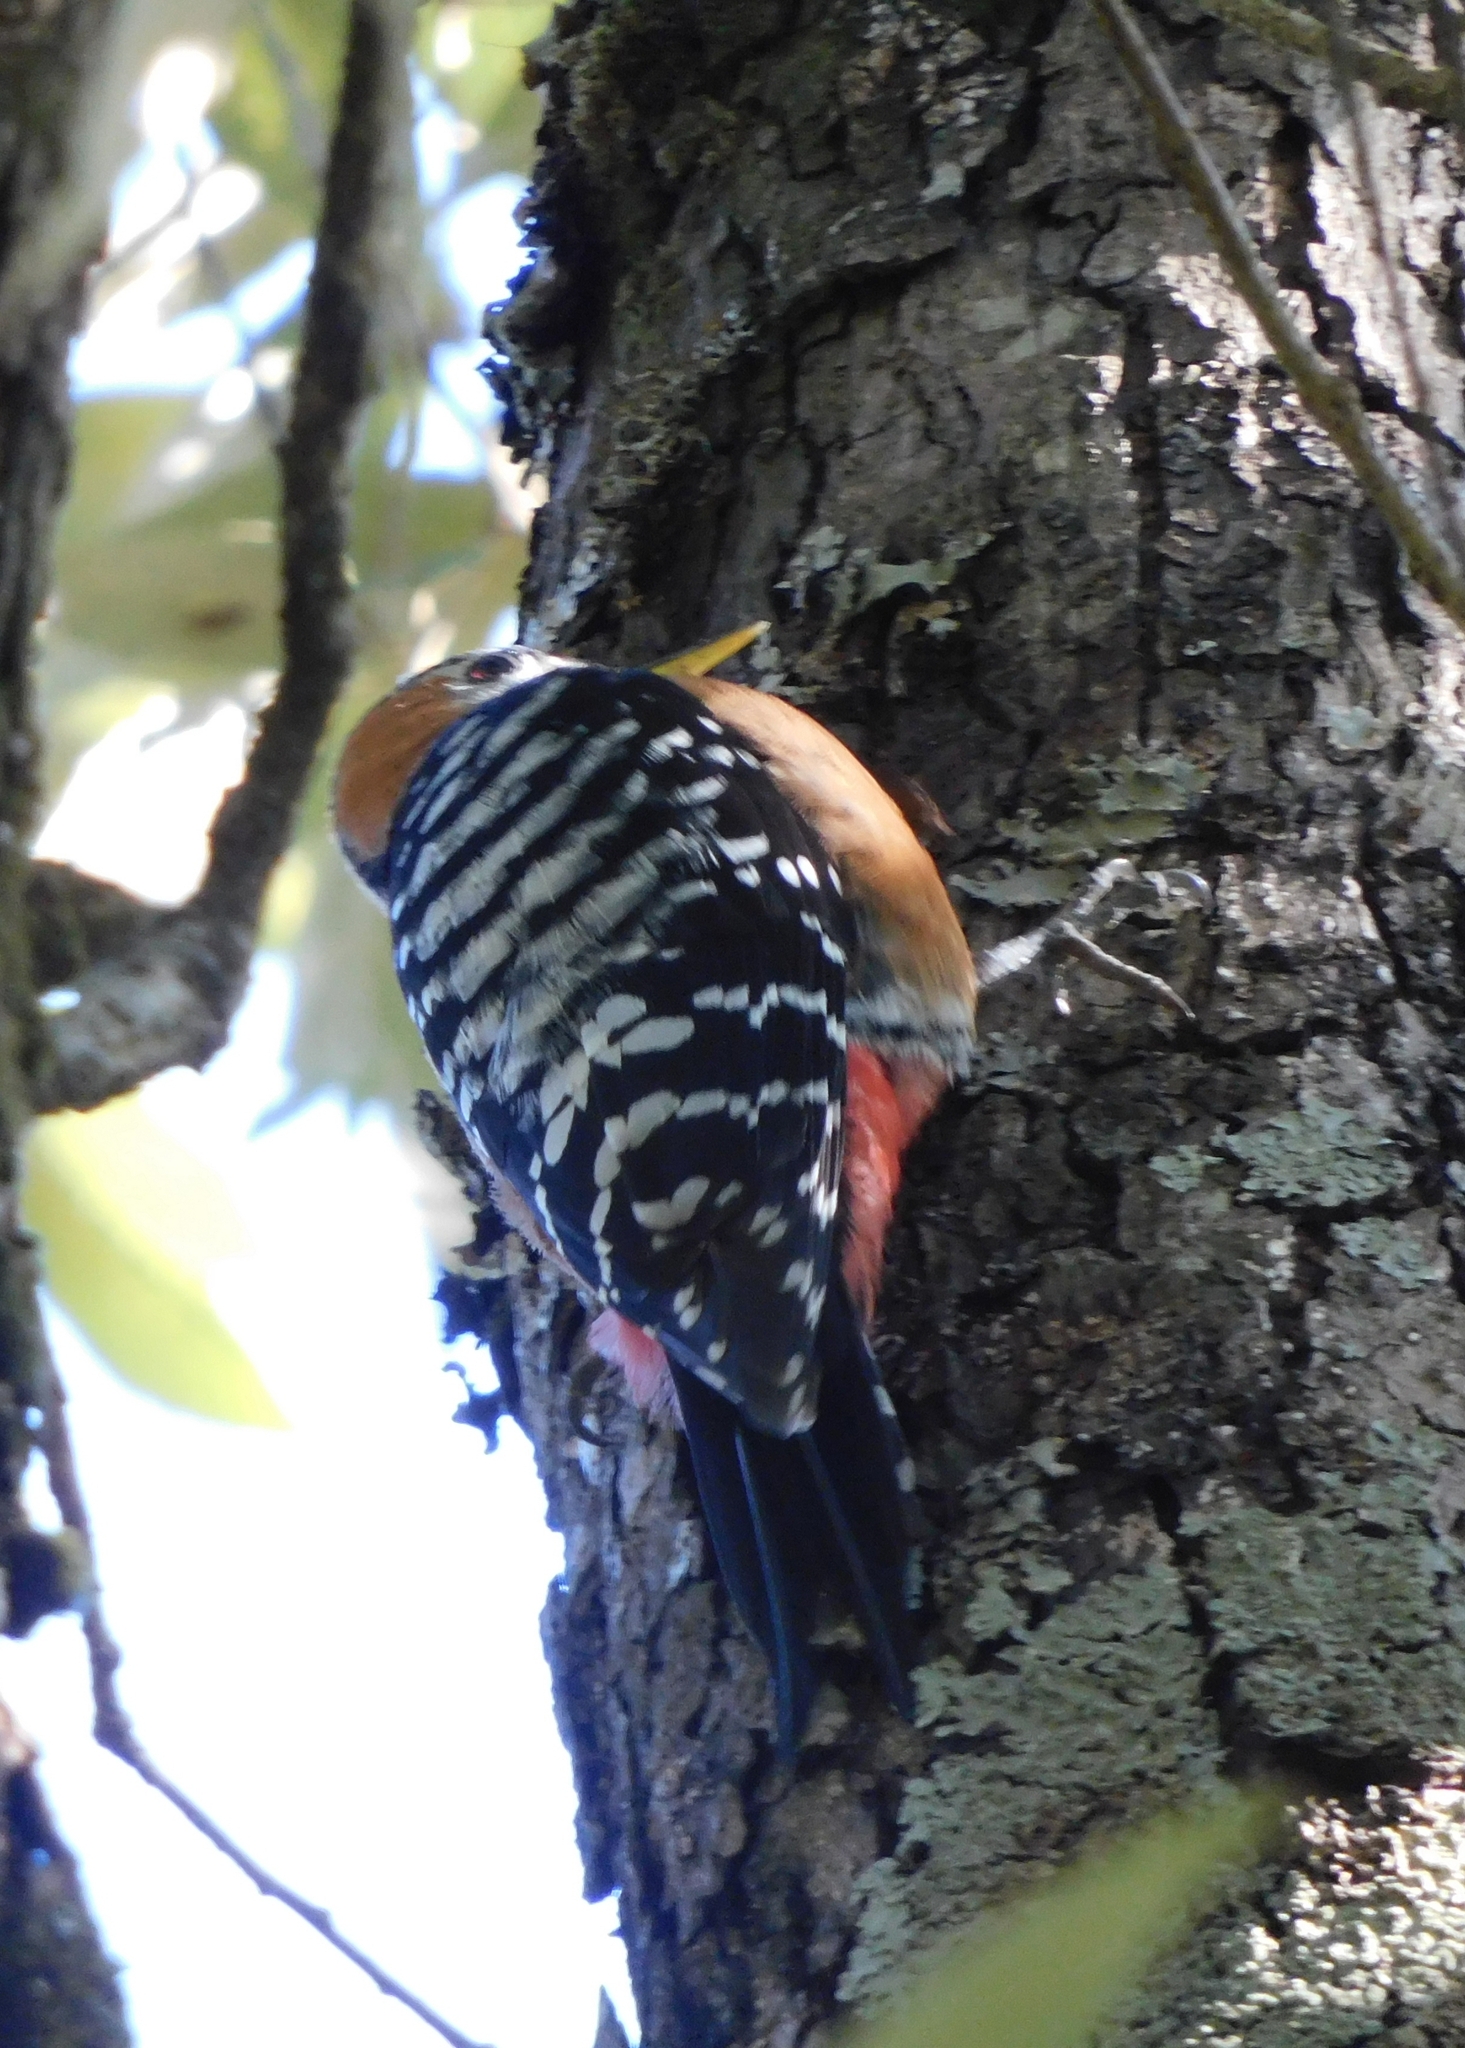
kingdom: Animalia
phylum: Chordata
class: Aves
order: Piciformes
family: Picidae
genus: Dendrocopos
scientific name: Dendrocopos hyperythrus
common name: Rufous-bellied woodpecker
